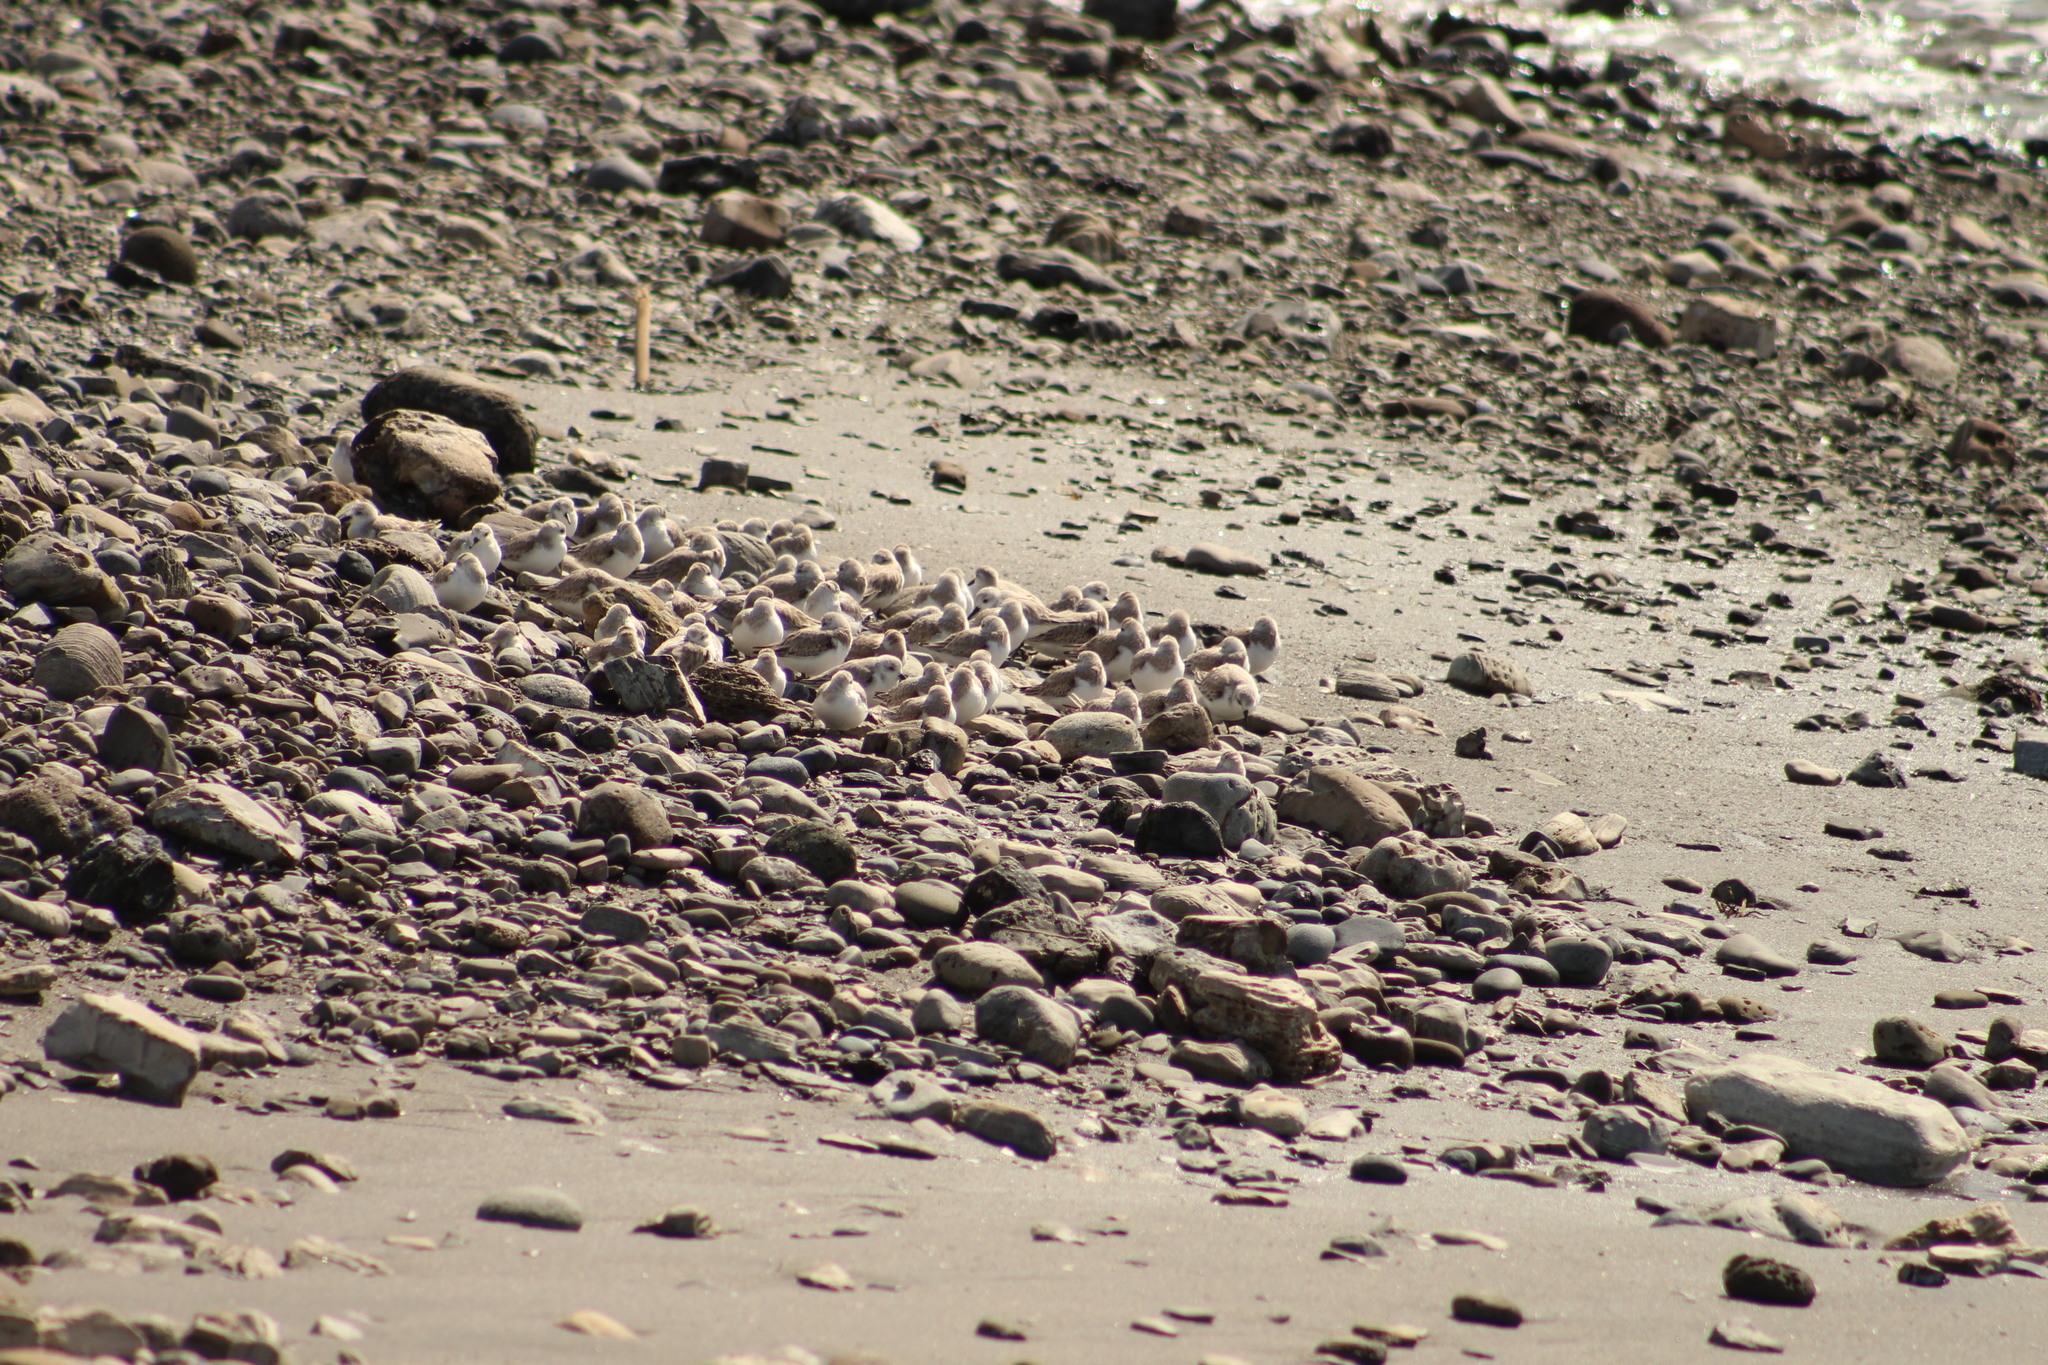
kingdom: Animalia
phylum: Chordata
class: Aves
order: Charadriiformes
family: Scolopacidae
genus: Calidris
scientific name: Calidris alba
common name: Sanderling
